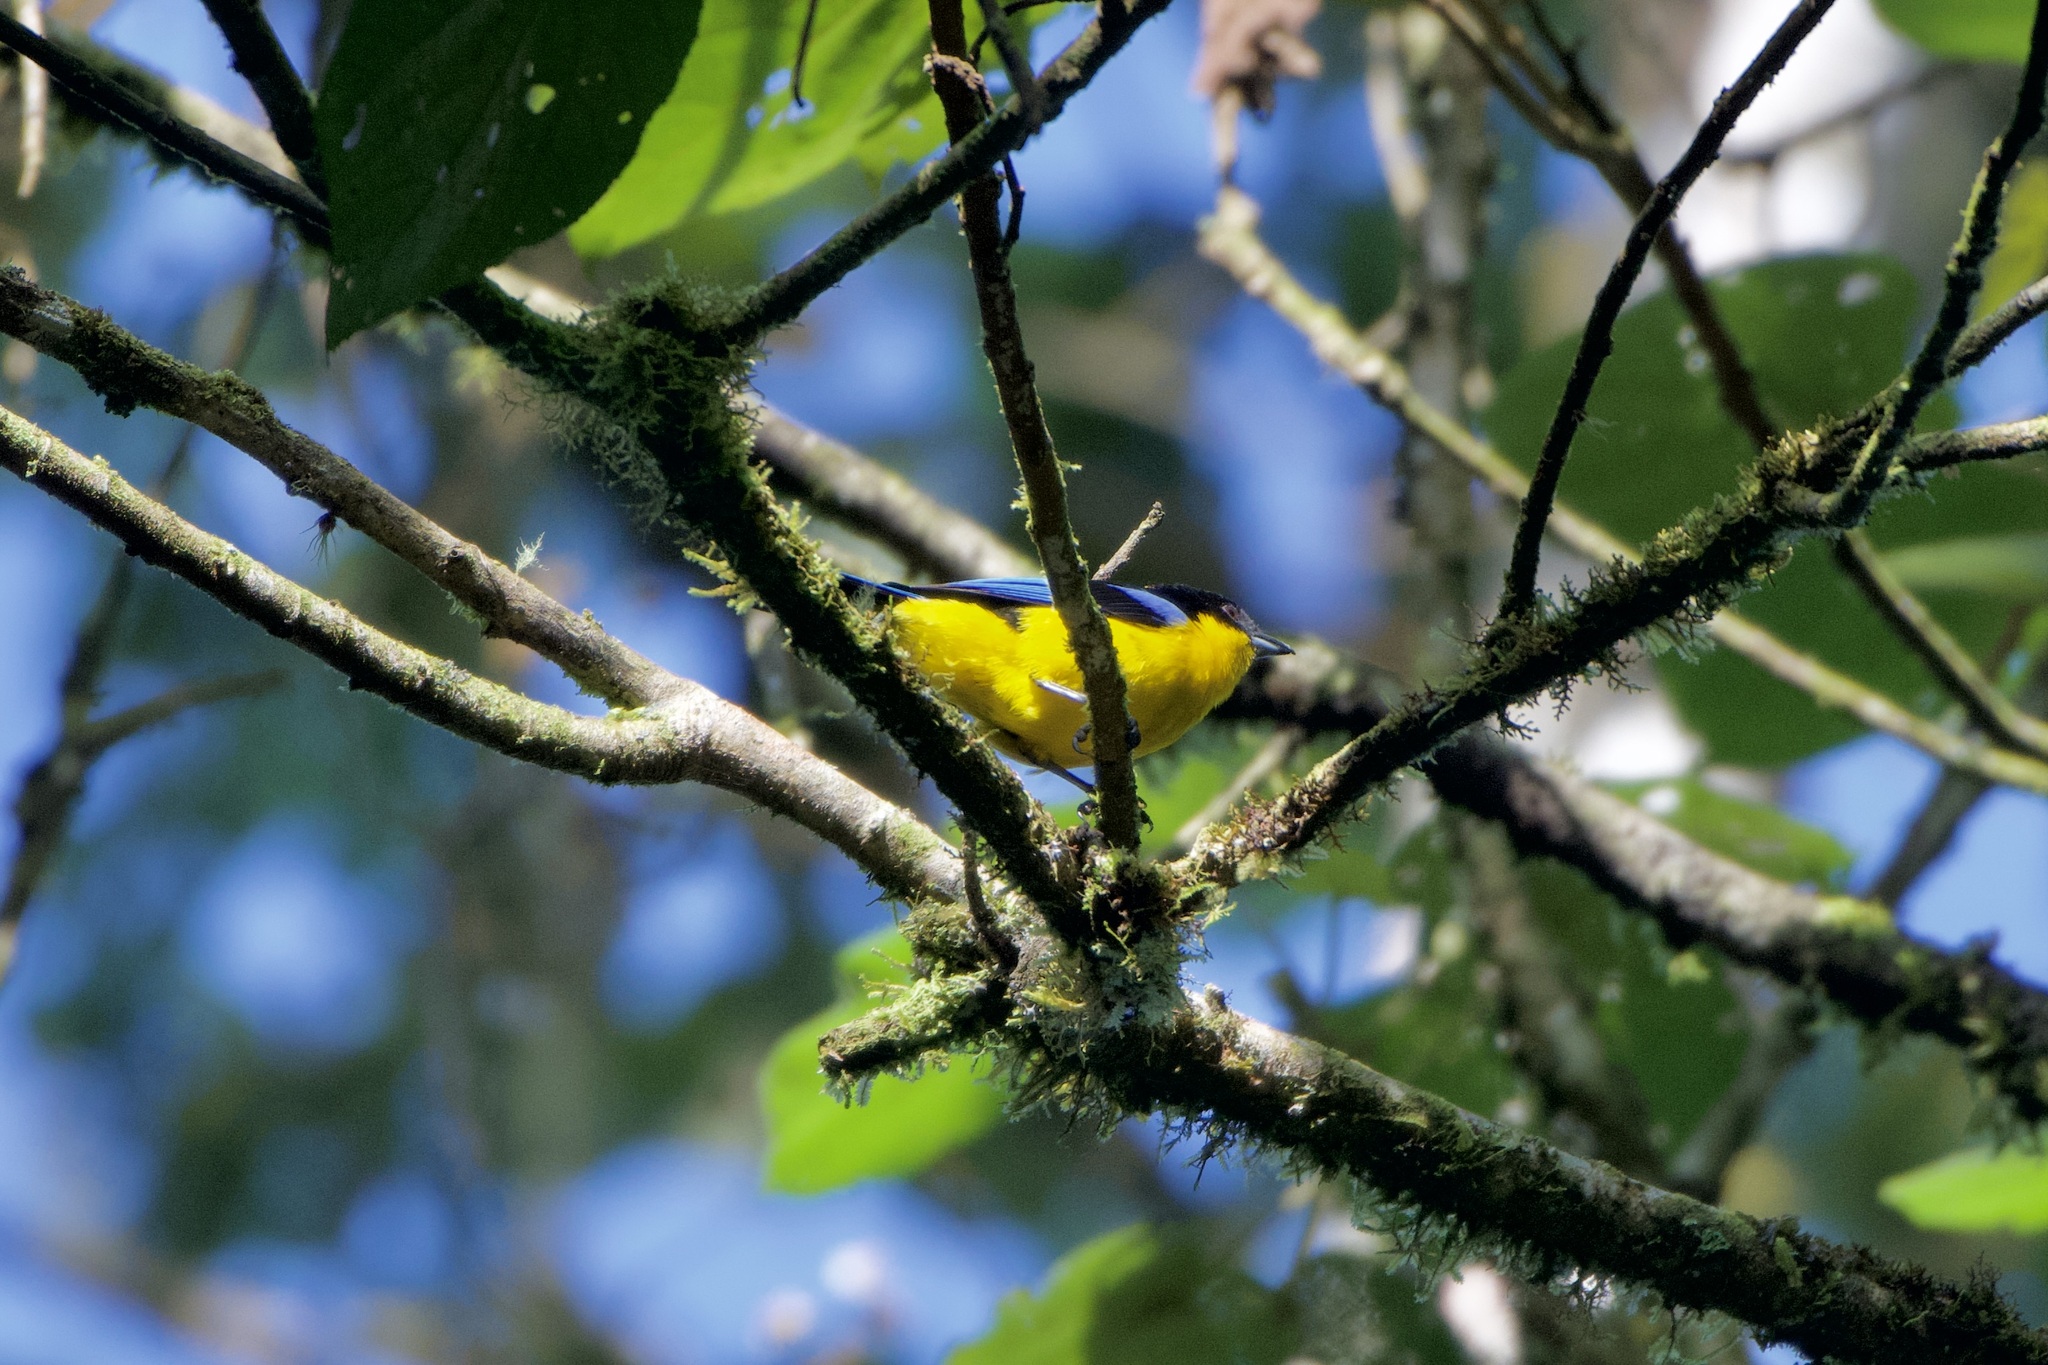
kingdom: Animalia
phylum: Chordata
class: Aves
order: Passeriformes
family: Thraupidae
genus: Anisognathus
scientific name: Anisognathus somptuosus
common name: Blue-winged mountain-tanager
